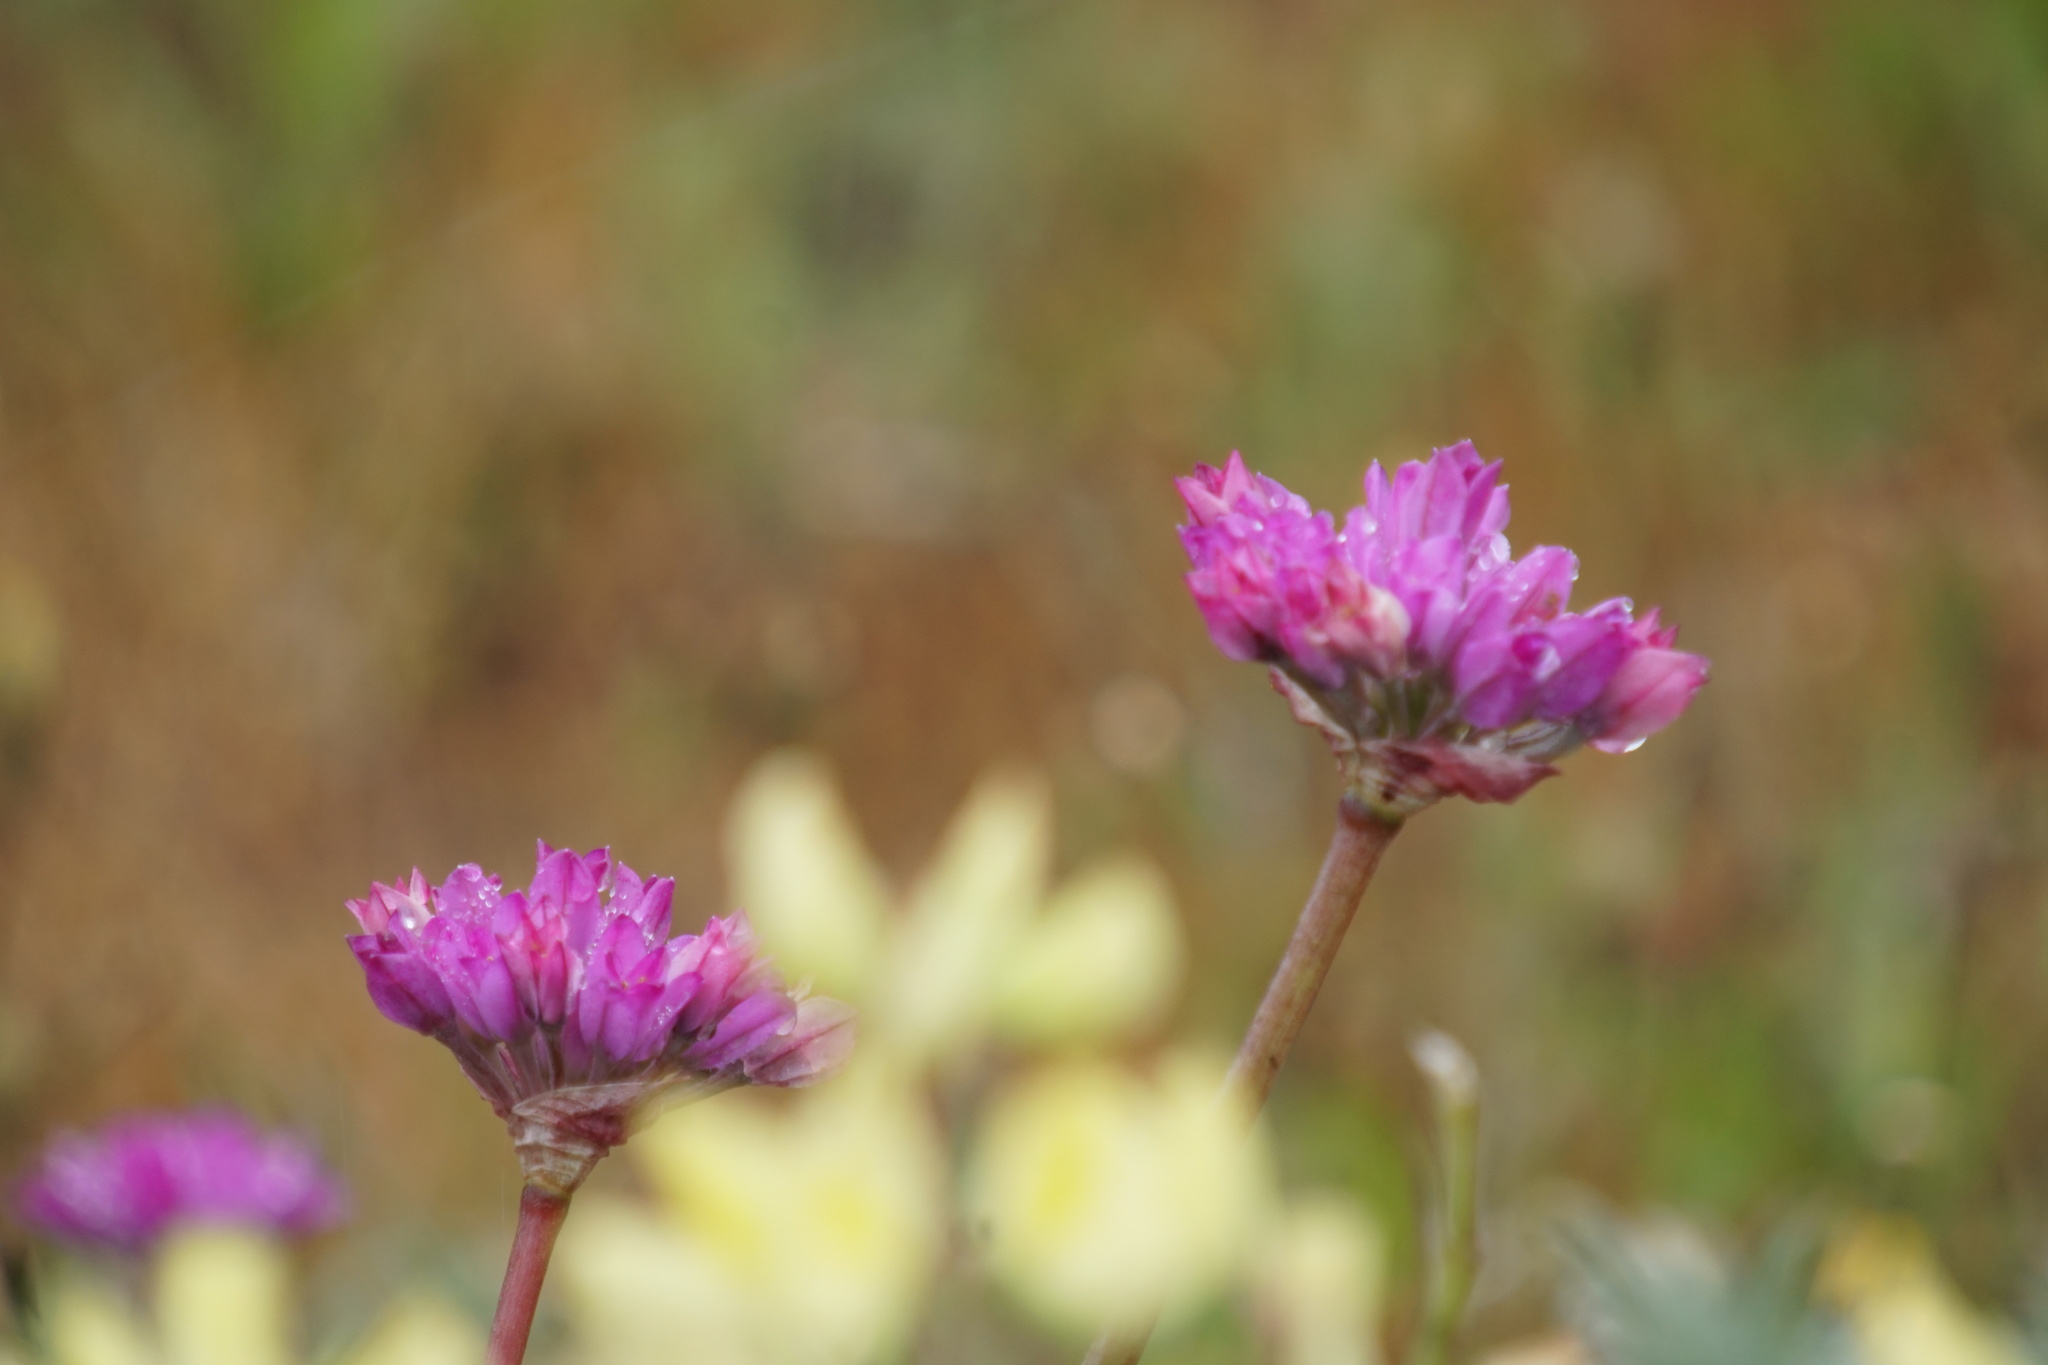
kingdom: Plantae
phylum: Tracheophyta
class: Liliopsida
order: Asparagales
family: Amaryllidaceae
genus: Allium
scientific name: Allium dichlamydeum
